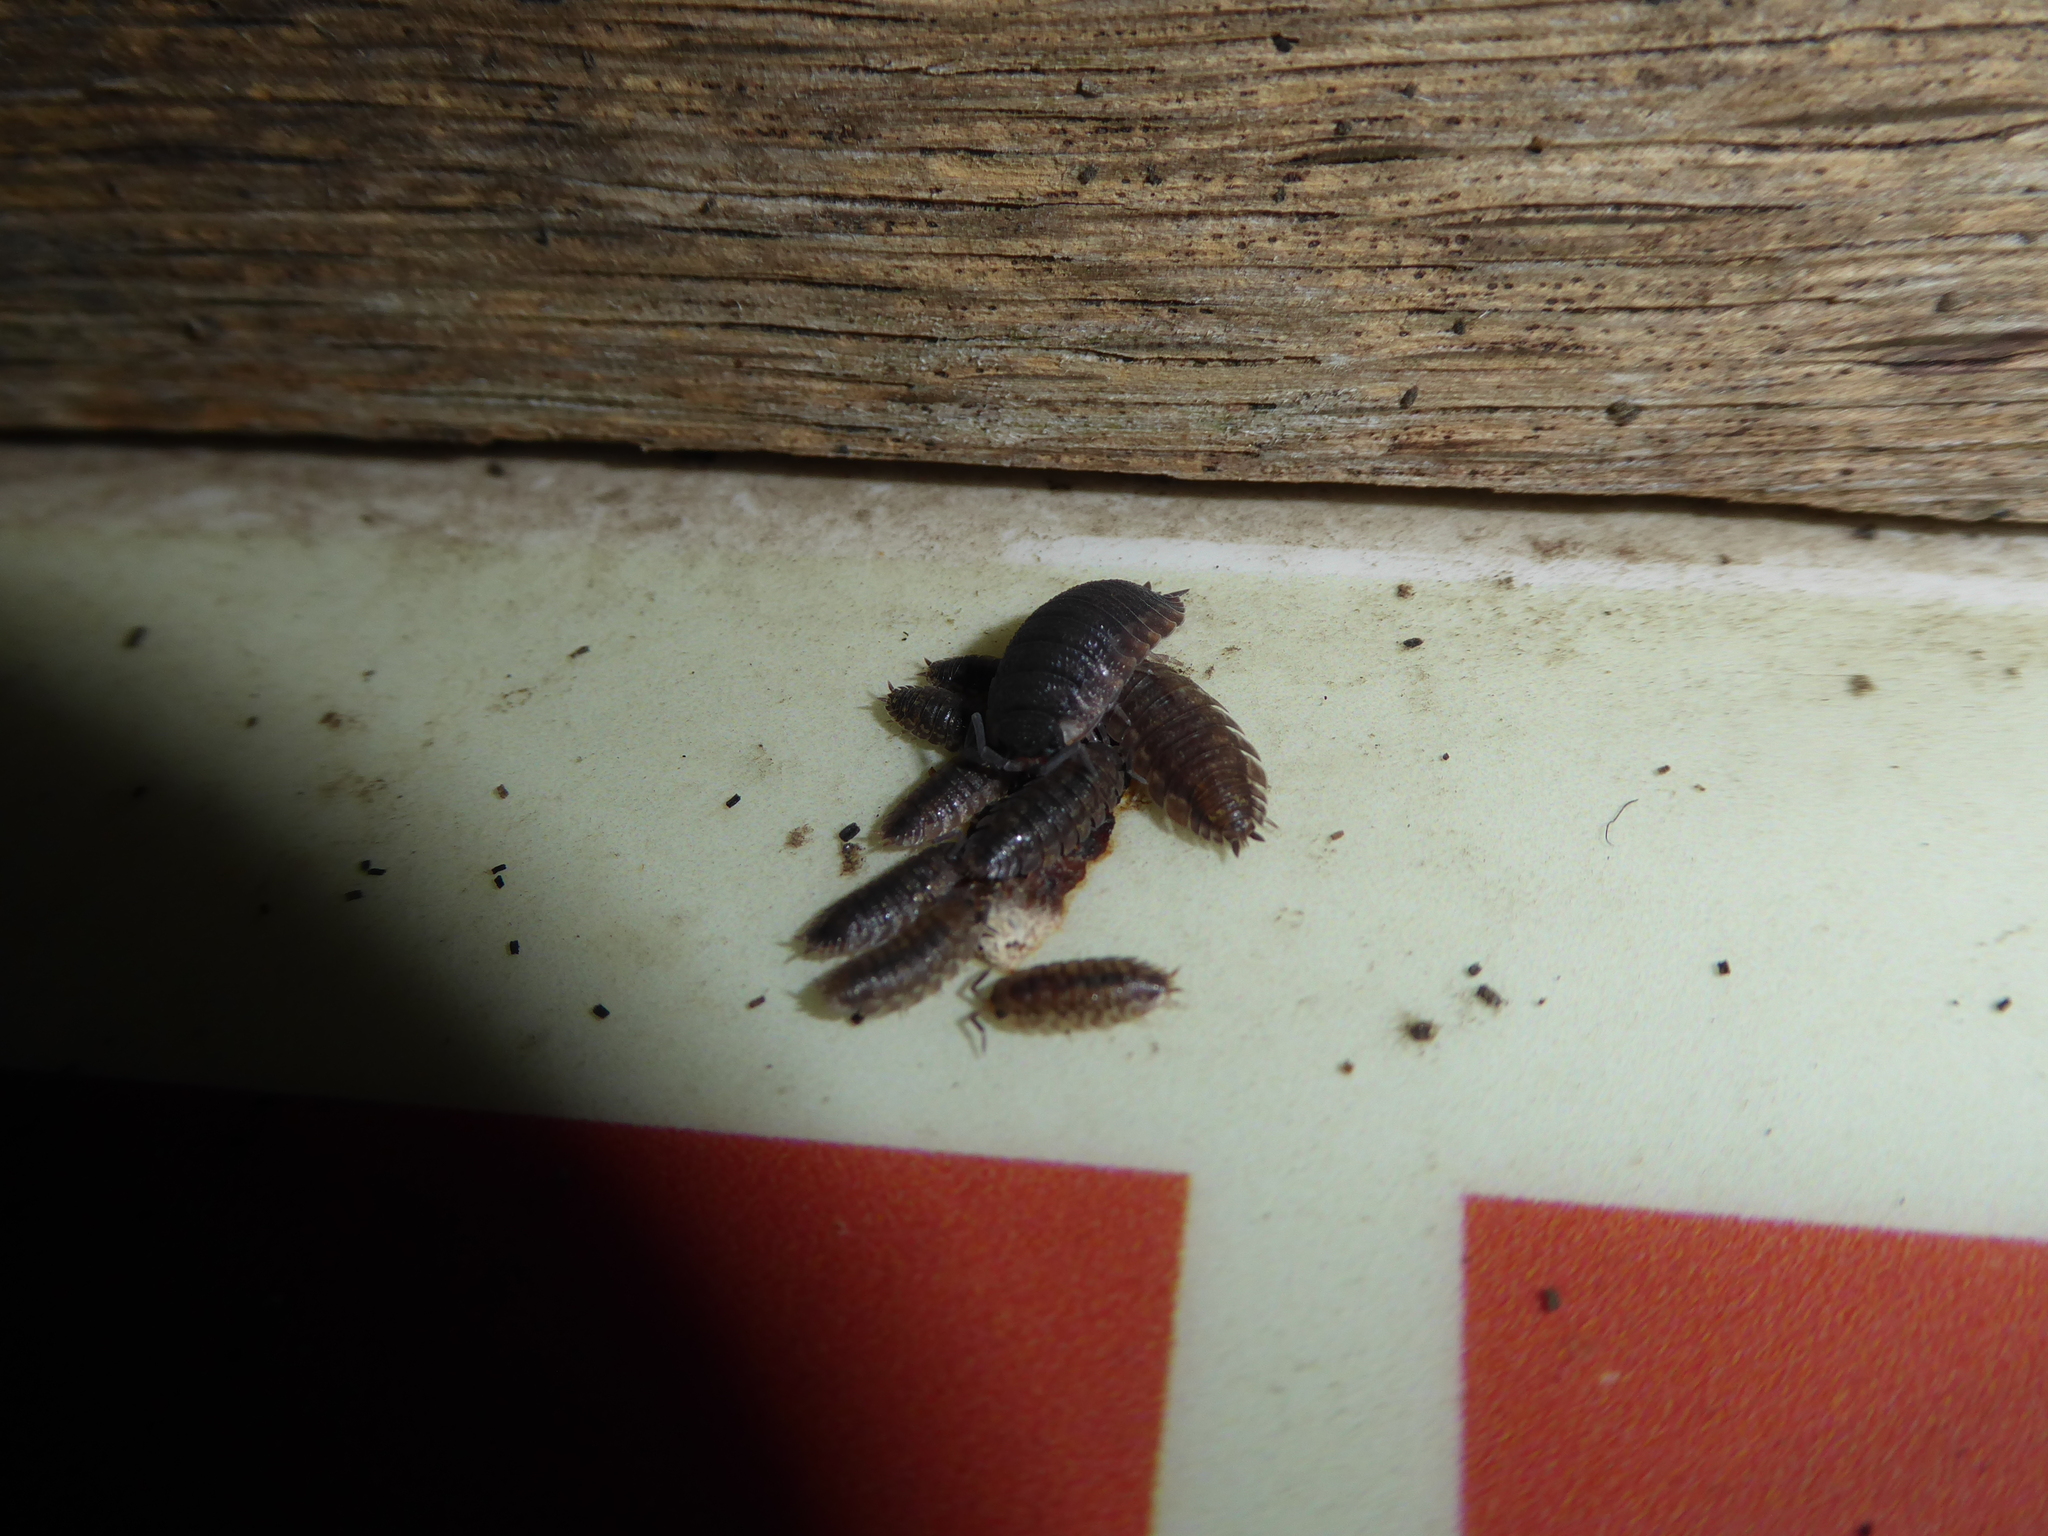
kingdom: Animalia
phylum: Arthropoda
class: Malacostraca
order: Isopoda
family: Porcellionidae
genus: Porcellio
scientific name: Porcellio scaber
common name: Common rough woodlouse
